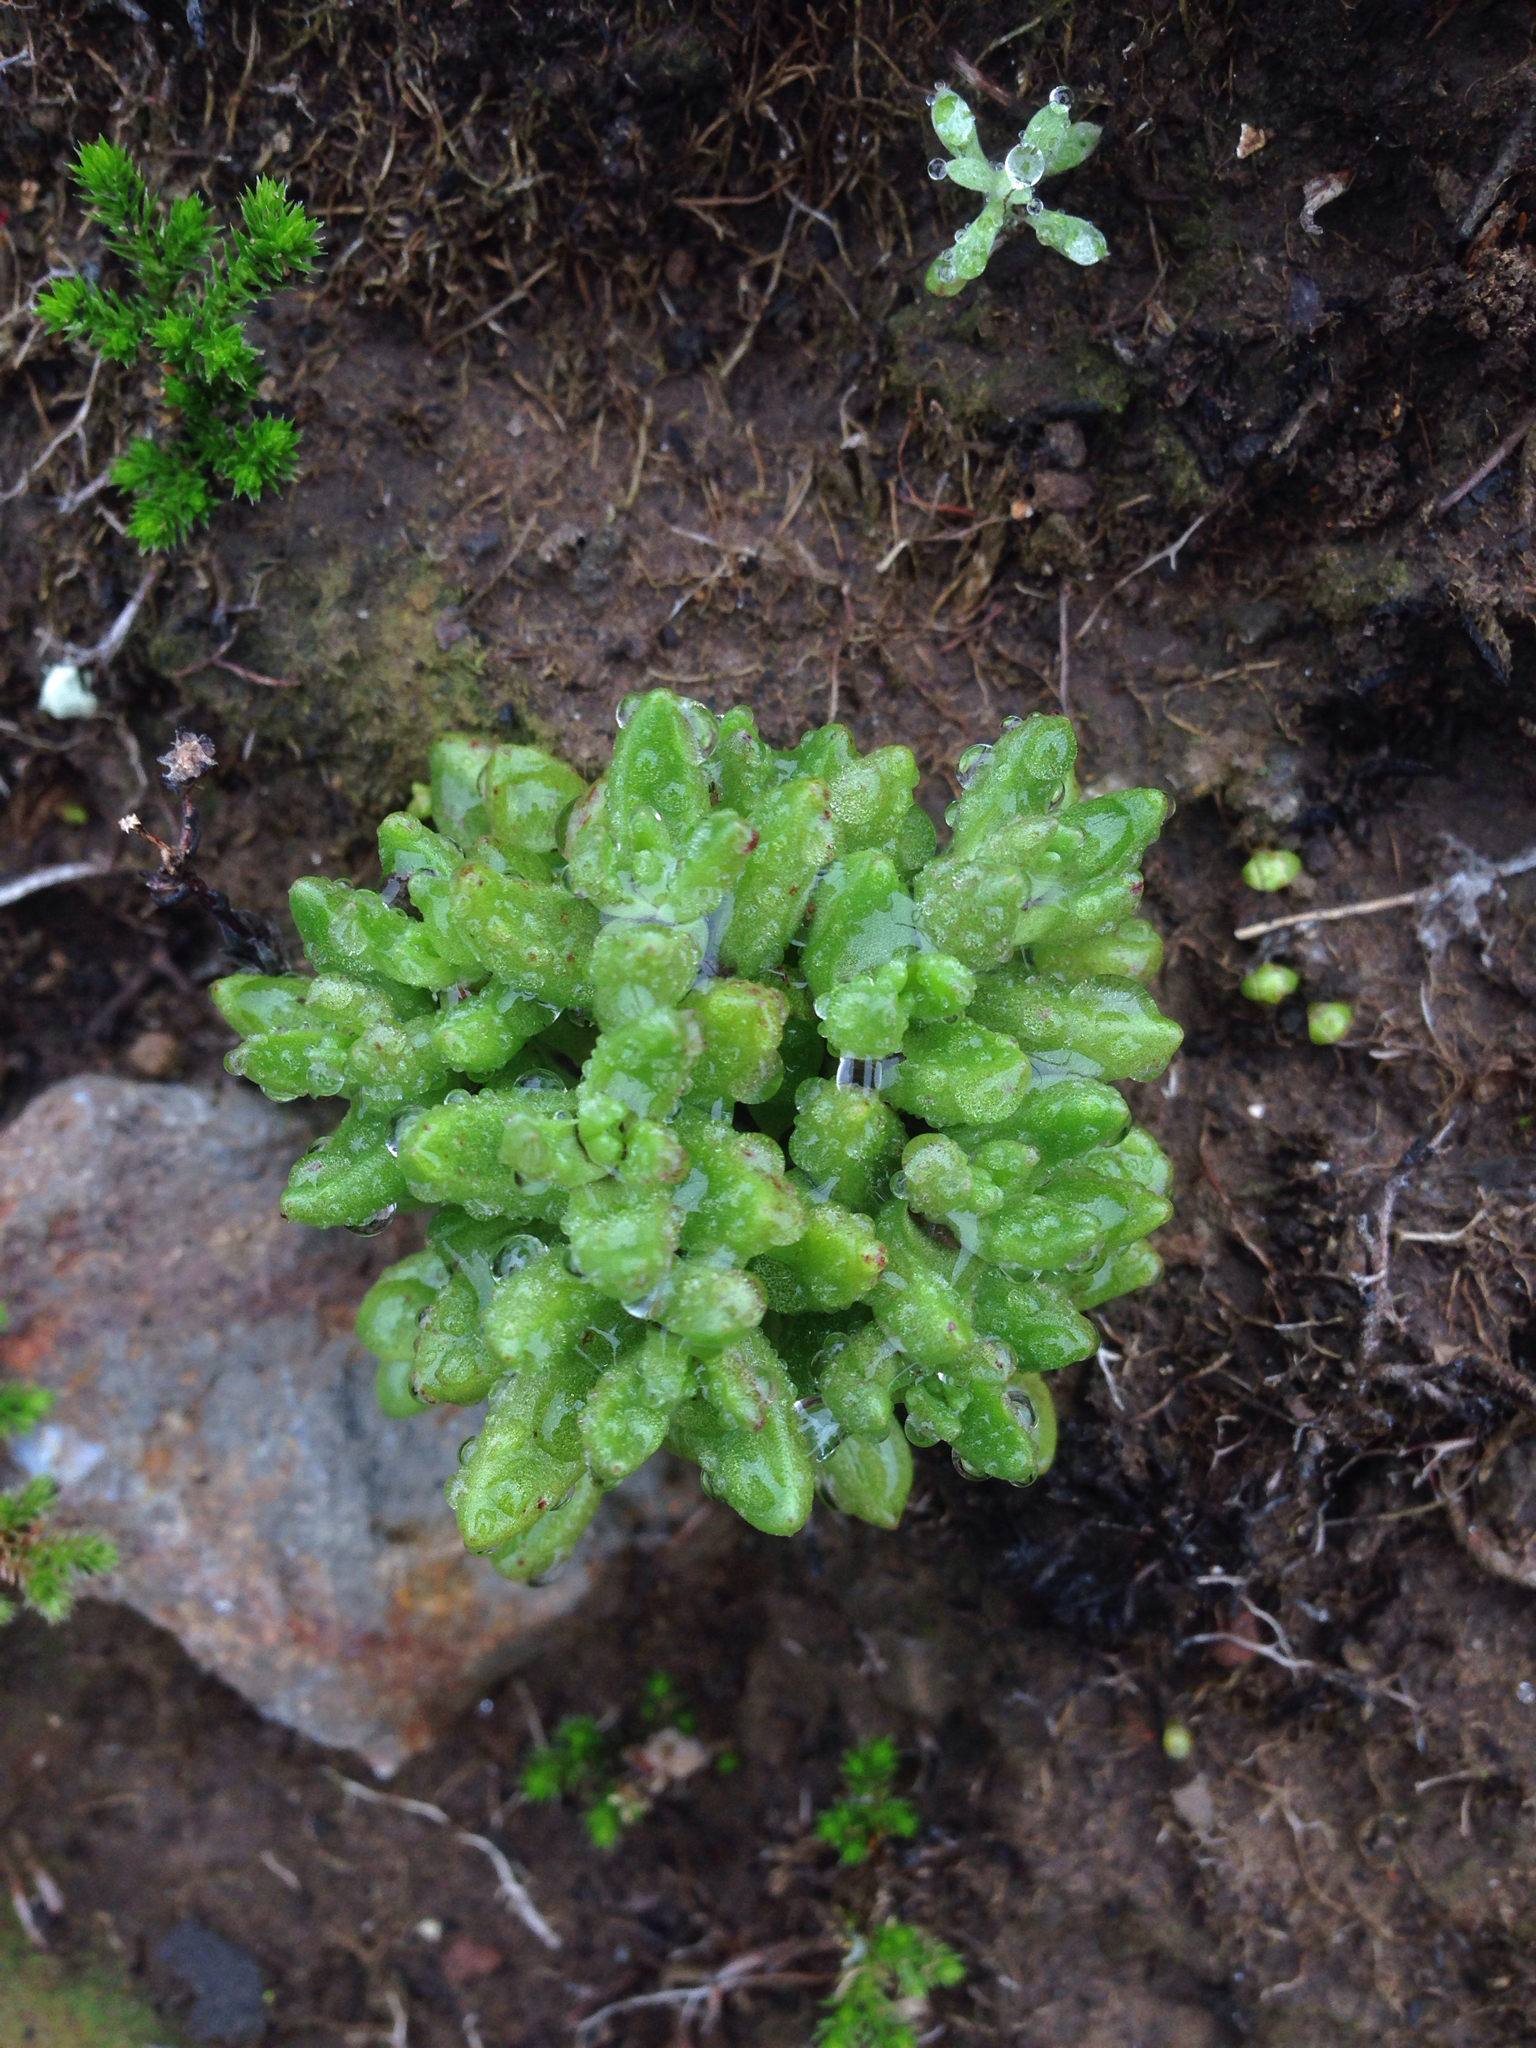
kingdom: Plantae
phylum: Tracheophyta
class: Magnoliopsida
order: Saxifragales
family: Crassulaceae
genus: Dudleya
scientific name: Dudleya blochmaniae
